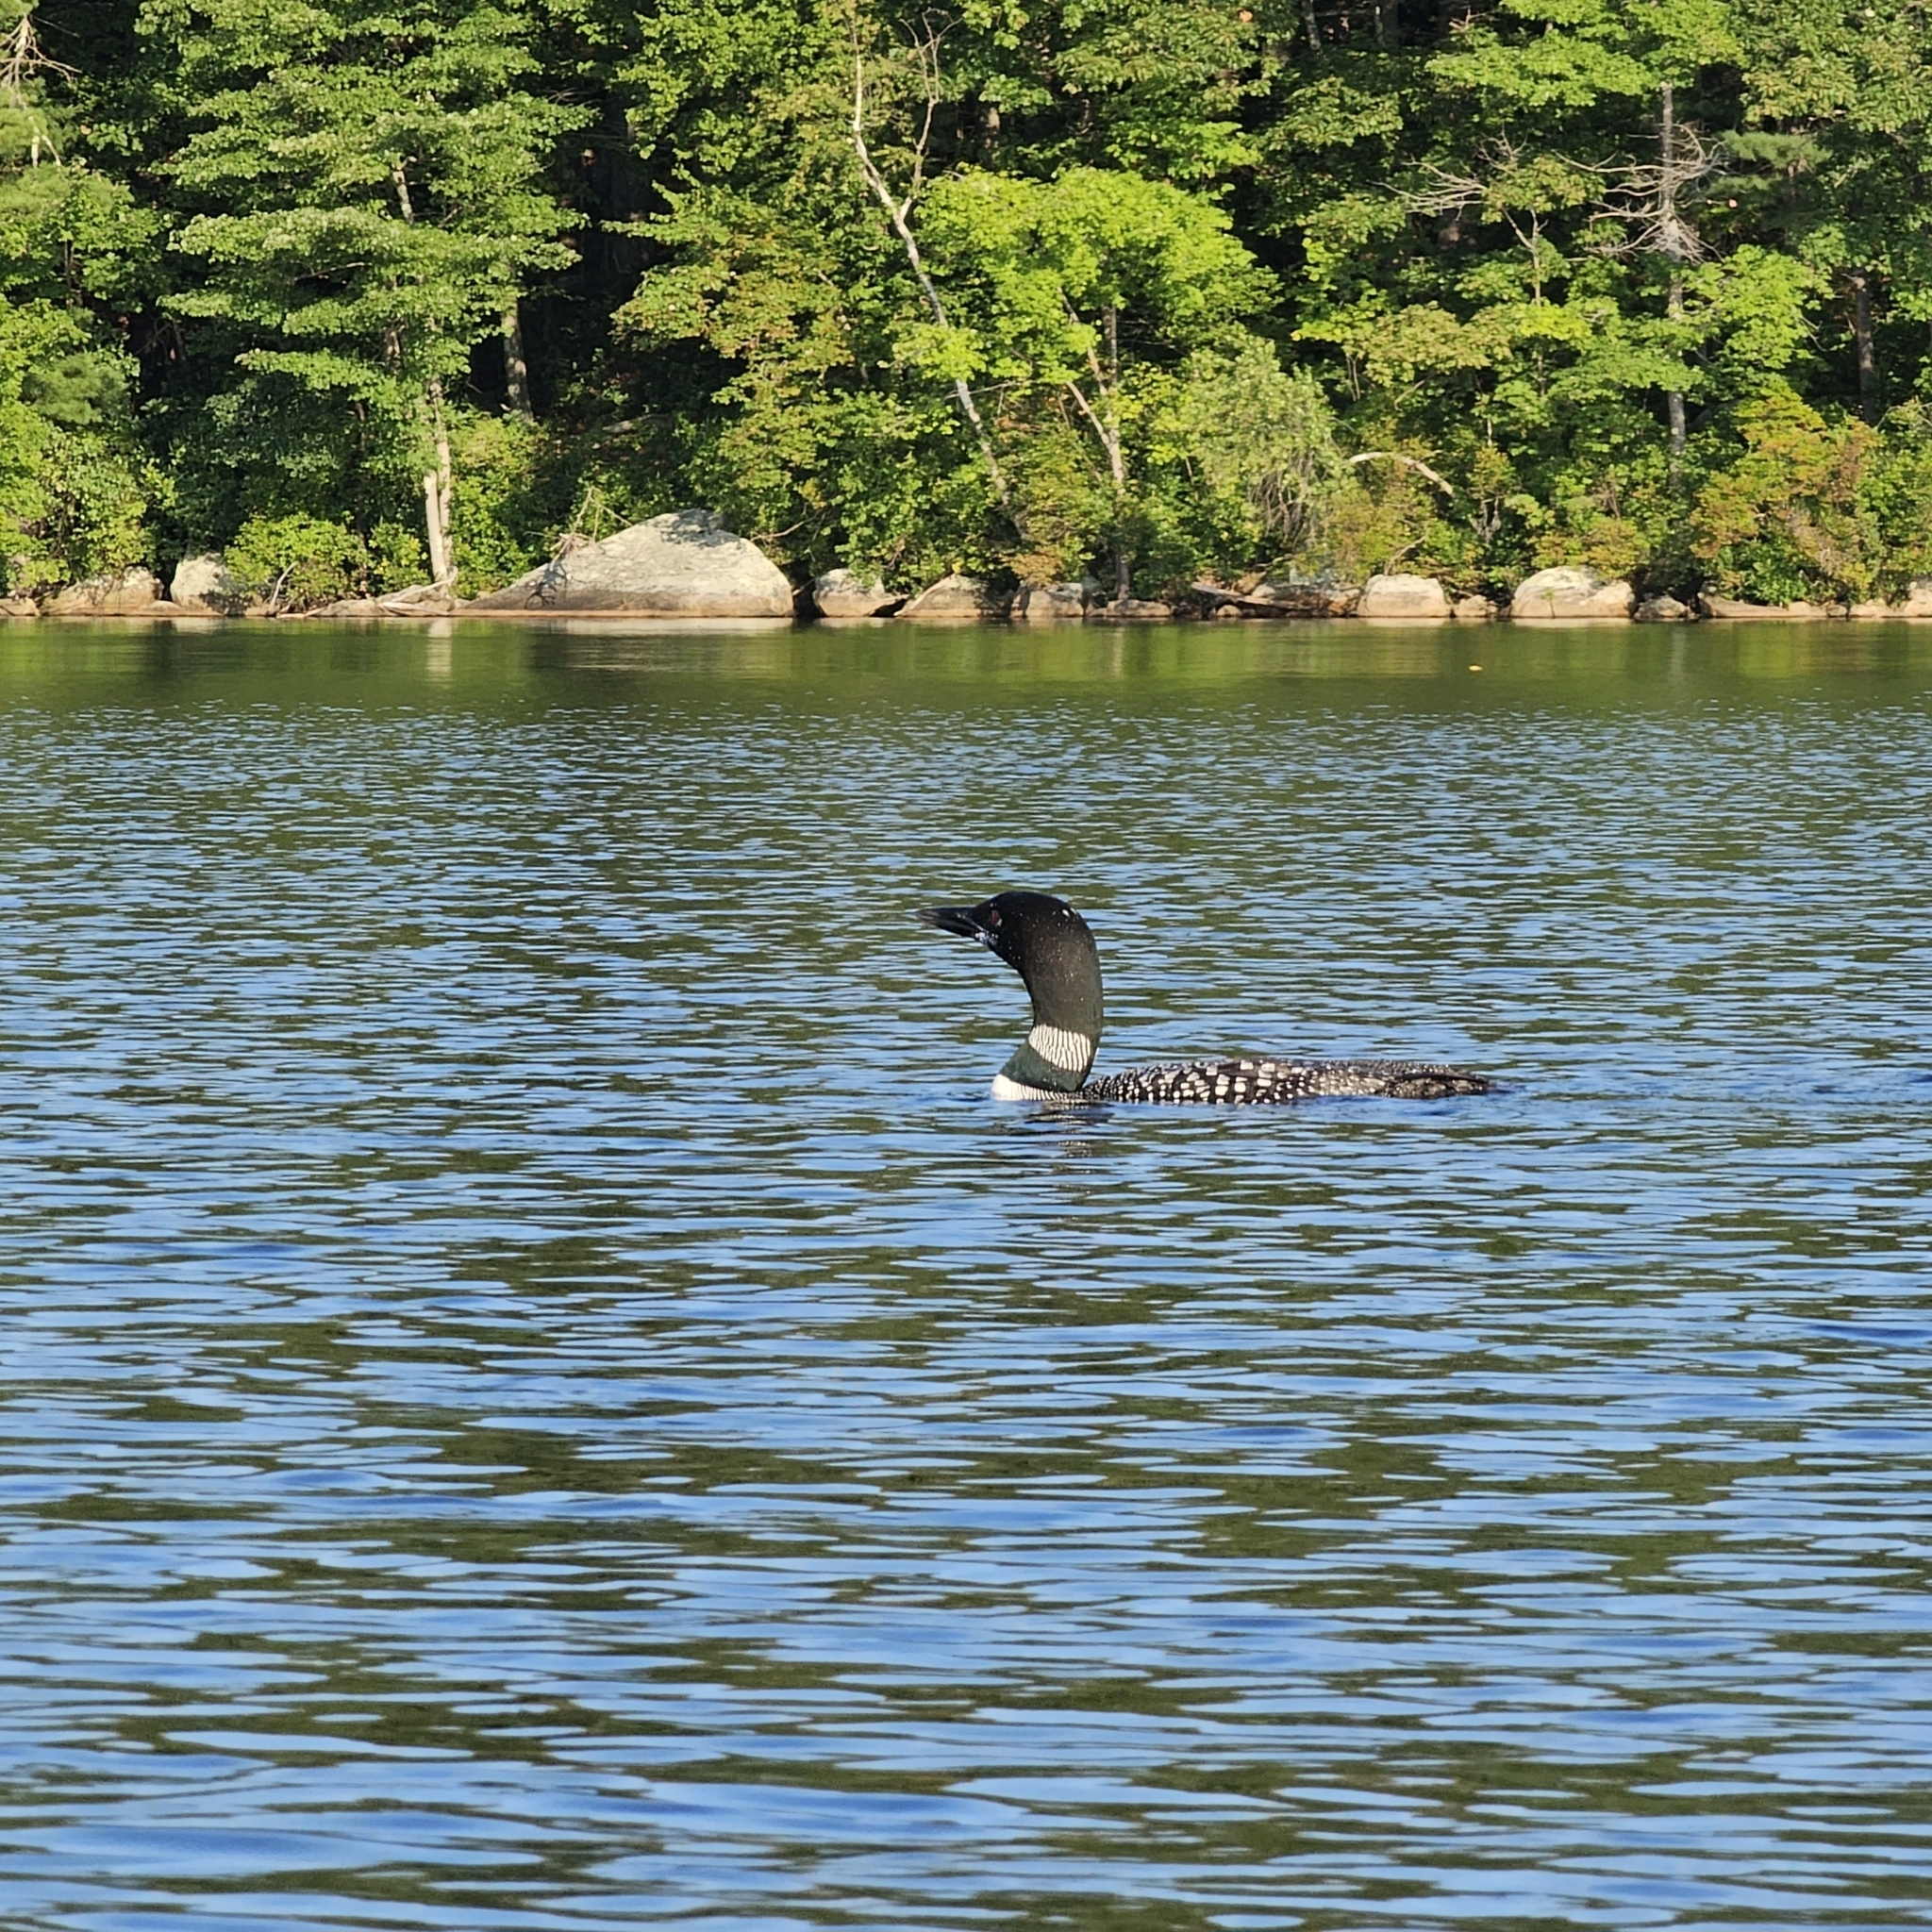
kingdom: Animalia
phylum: Chordata
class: Aves
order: Gaviiformes
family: Gaviidae
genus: Gavia
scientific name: Gavia immer
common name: Common loon
